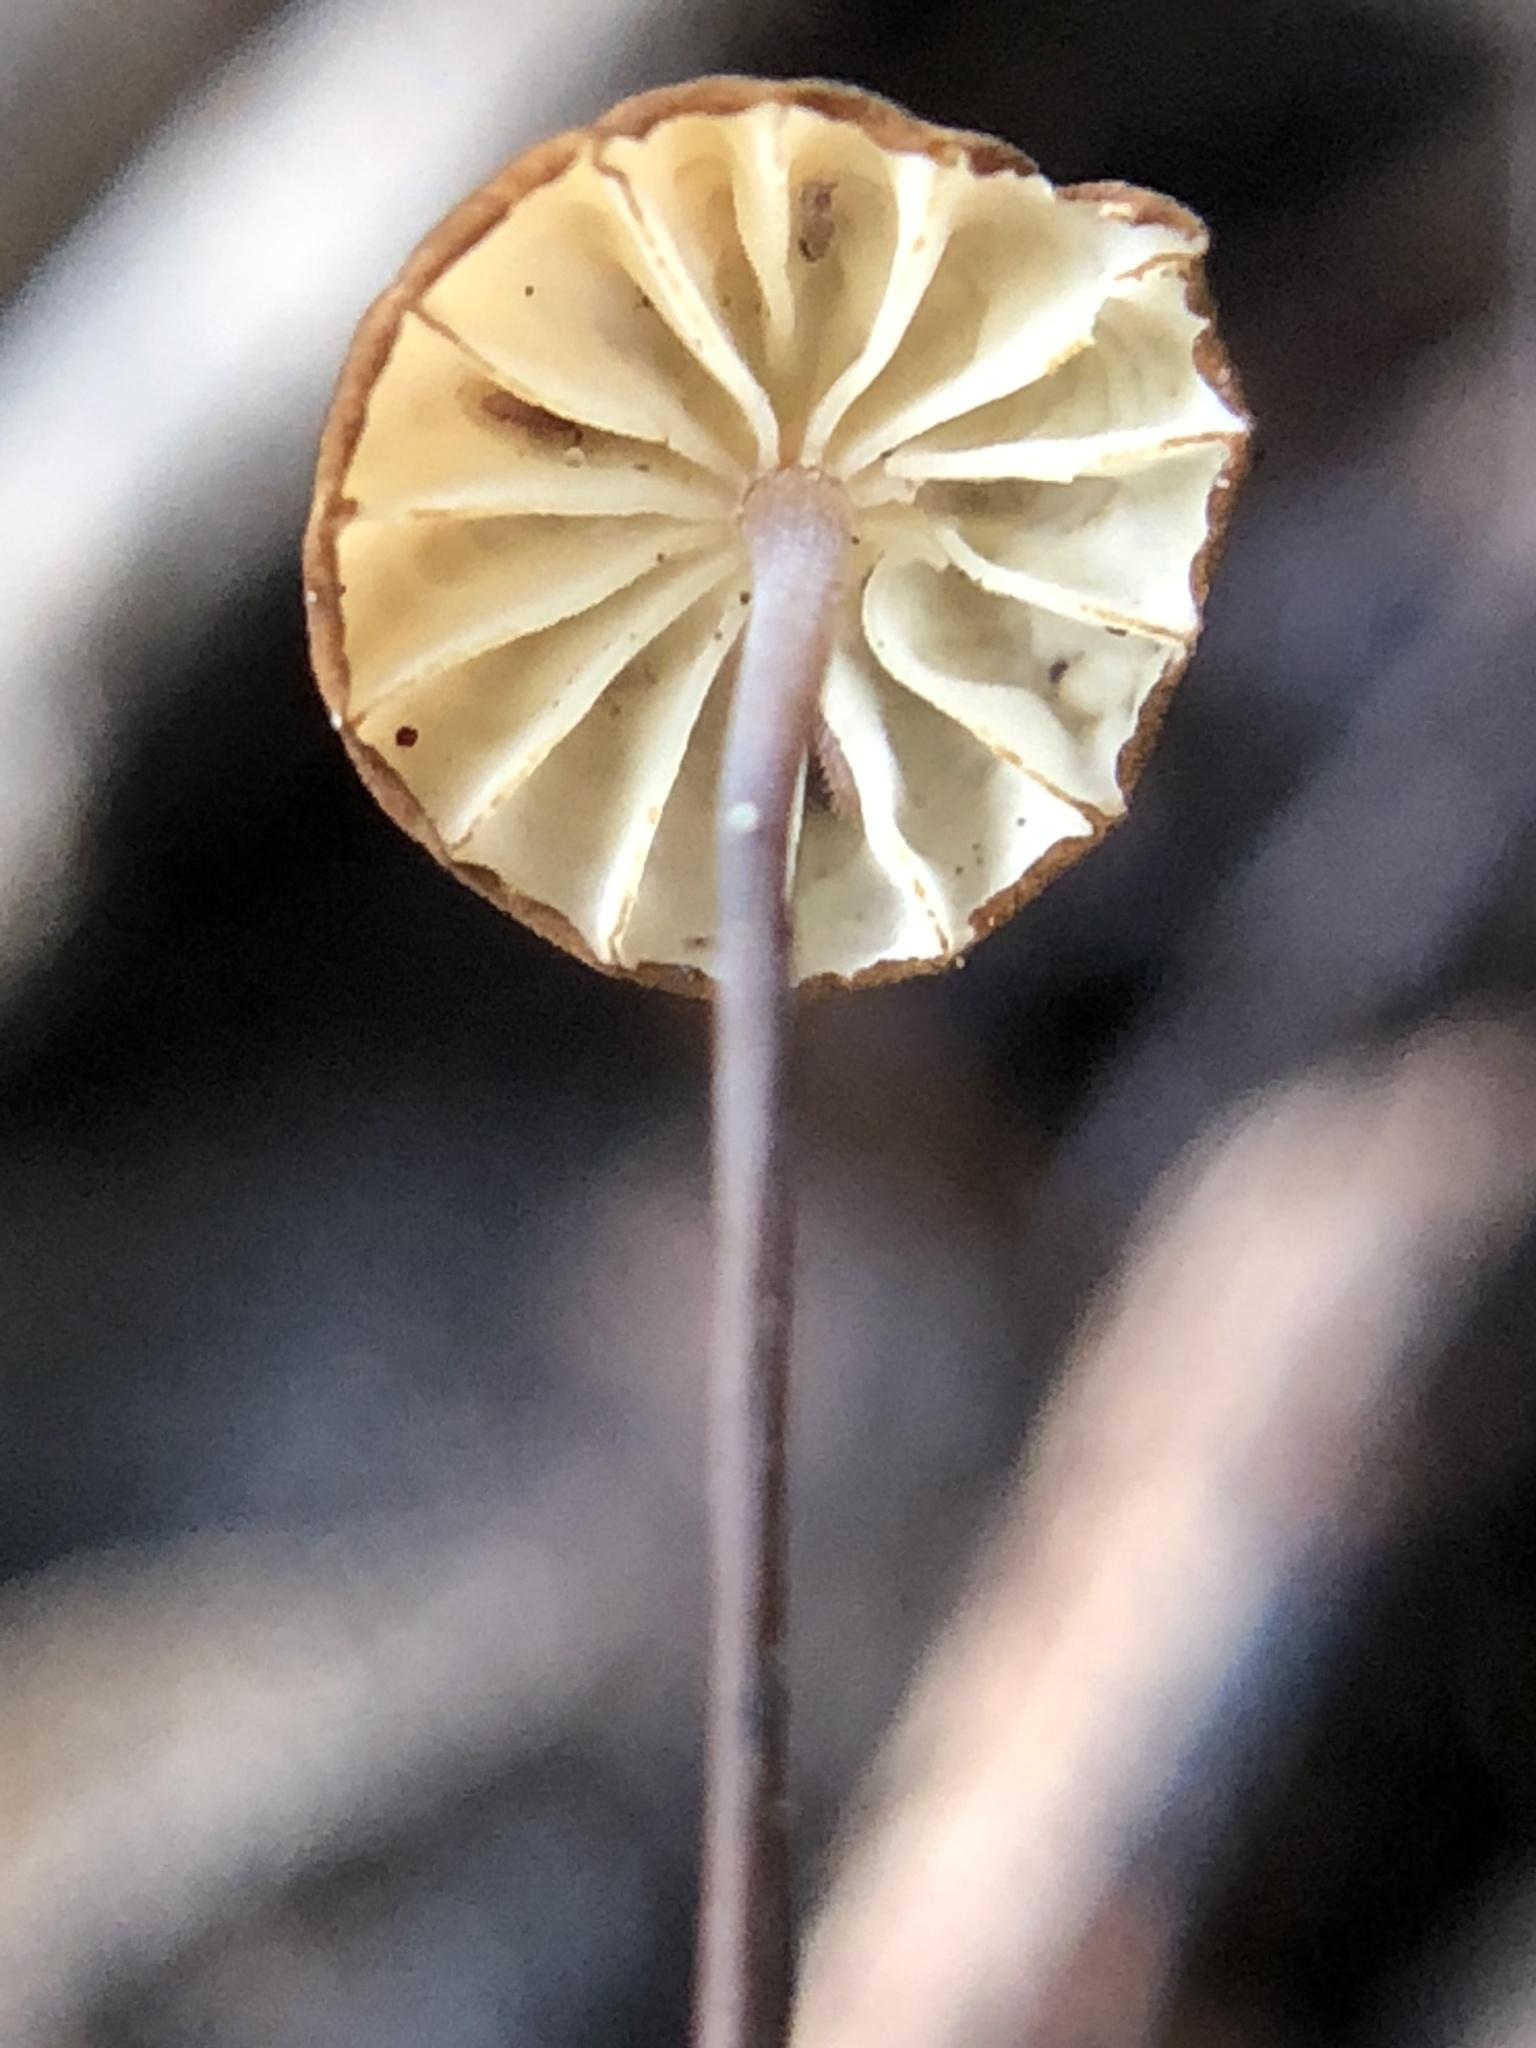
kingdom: Fungi
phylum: Basidiomycota
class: Agaricomycetes
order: Agaricales
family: Physalacriaceae
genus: Cryptomarasmius
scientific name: Cryptomarasmius corbariensis
